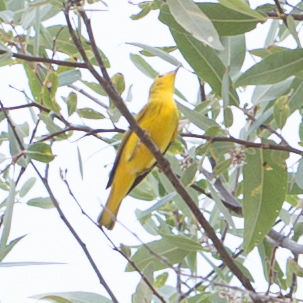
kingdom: Animalia
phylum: Chordata
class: Aves
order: Passeriformes
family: Parulidae
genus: Setophaga
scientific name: Setophaga petechia
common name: Yellow warbler
